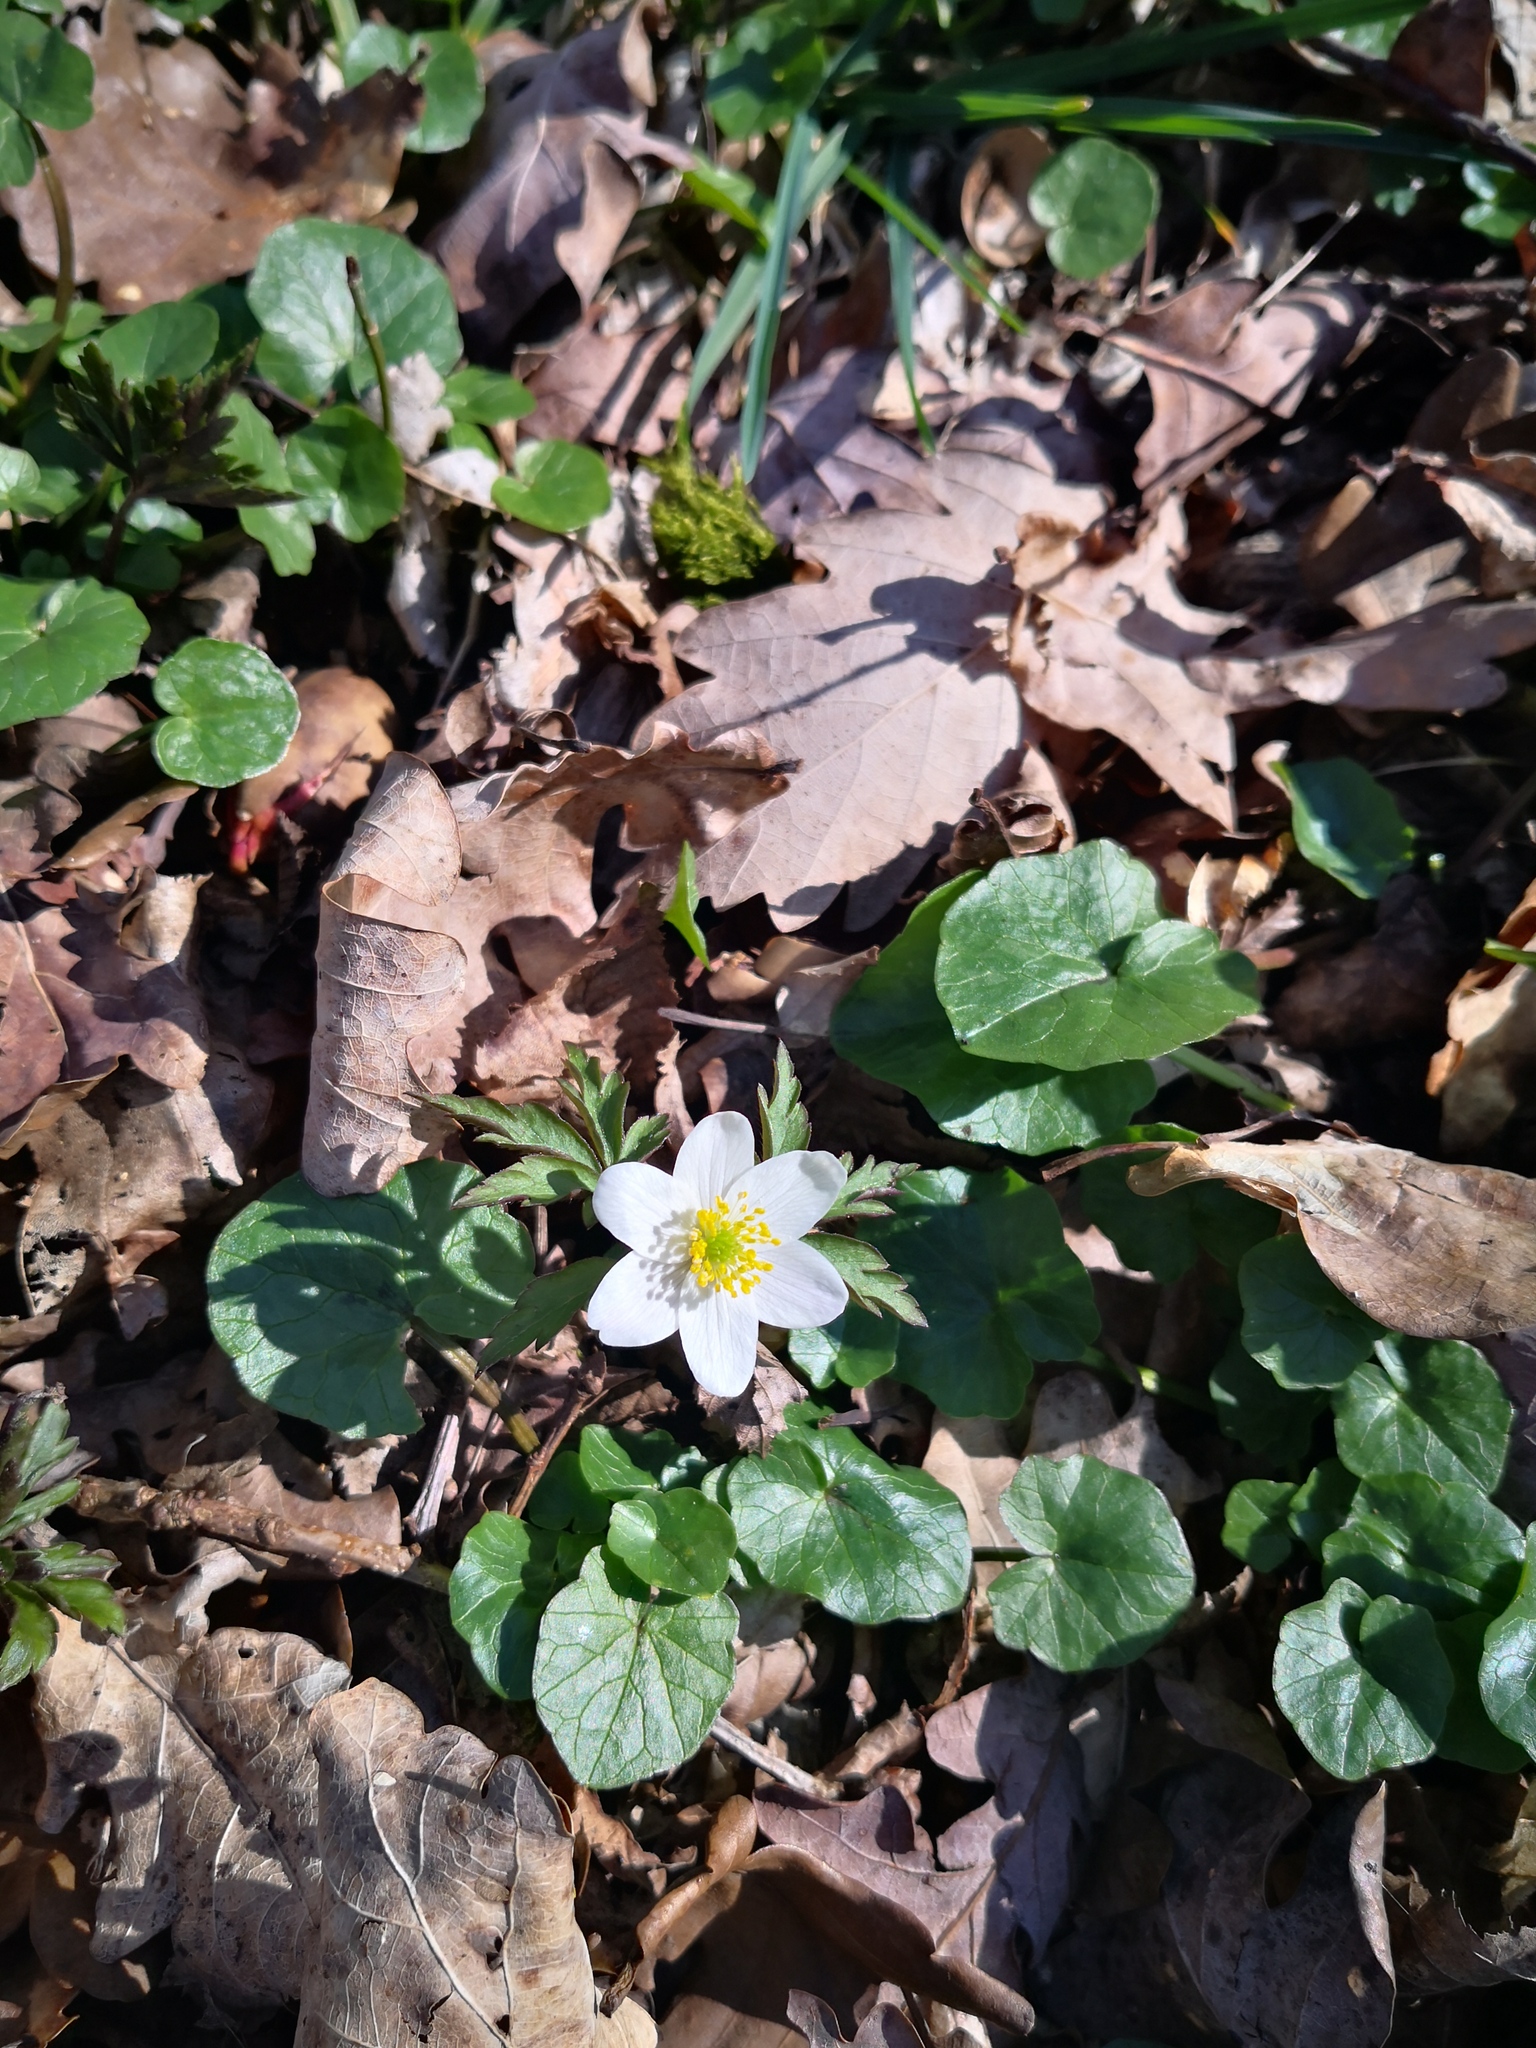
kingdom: Plantae
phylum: Tracheophyta
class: Magnoliopsida
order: Ranunculales
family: Ranunculaceae
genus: Anemone
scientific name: Anemone nemorosa
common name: Wood anemone
